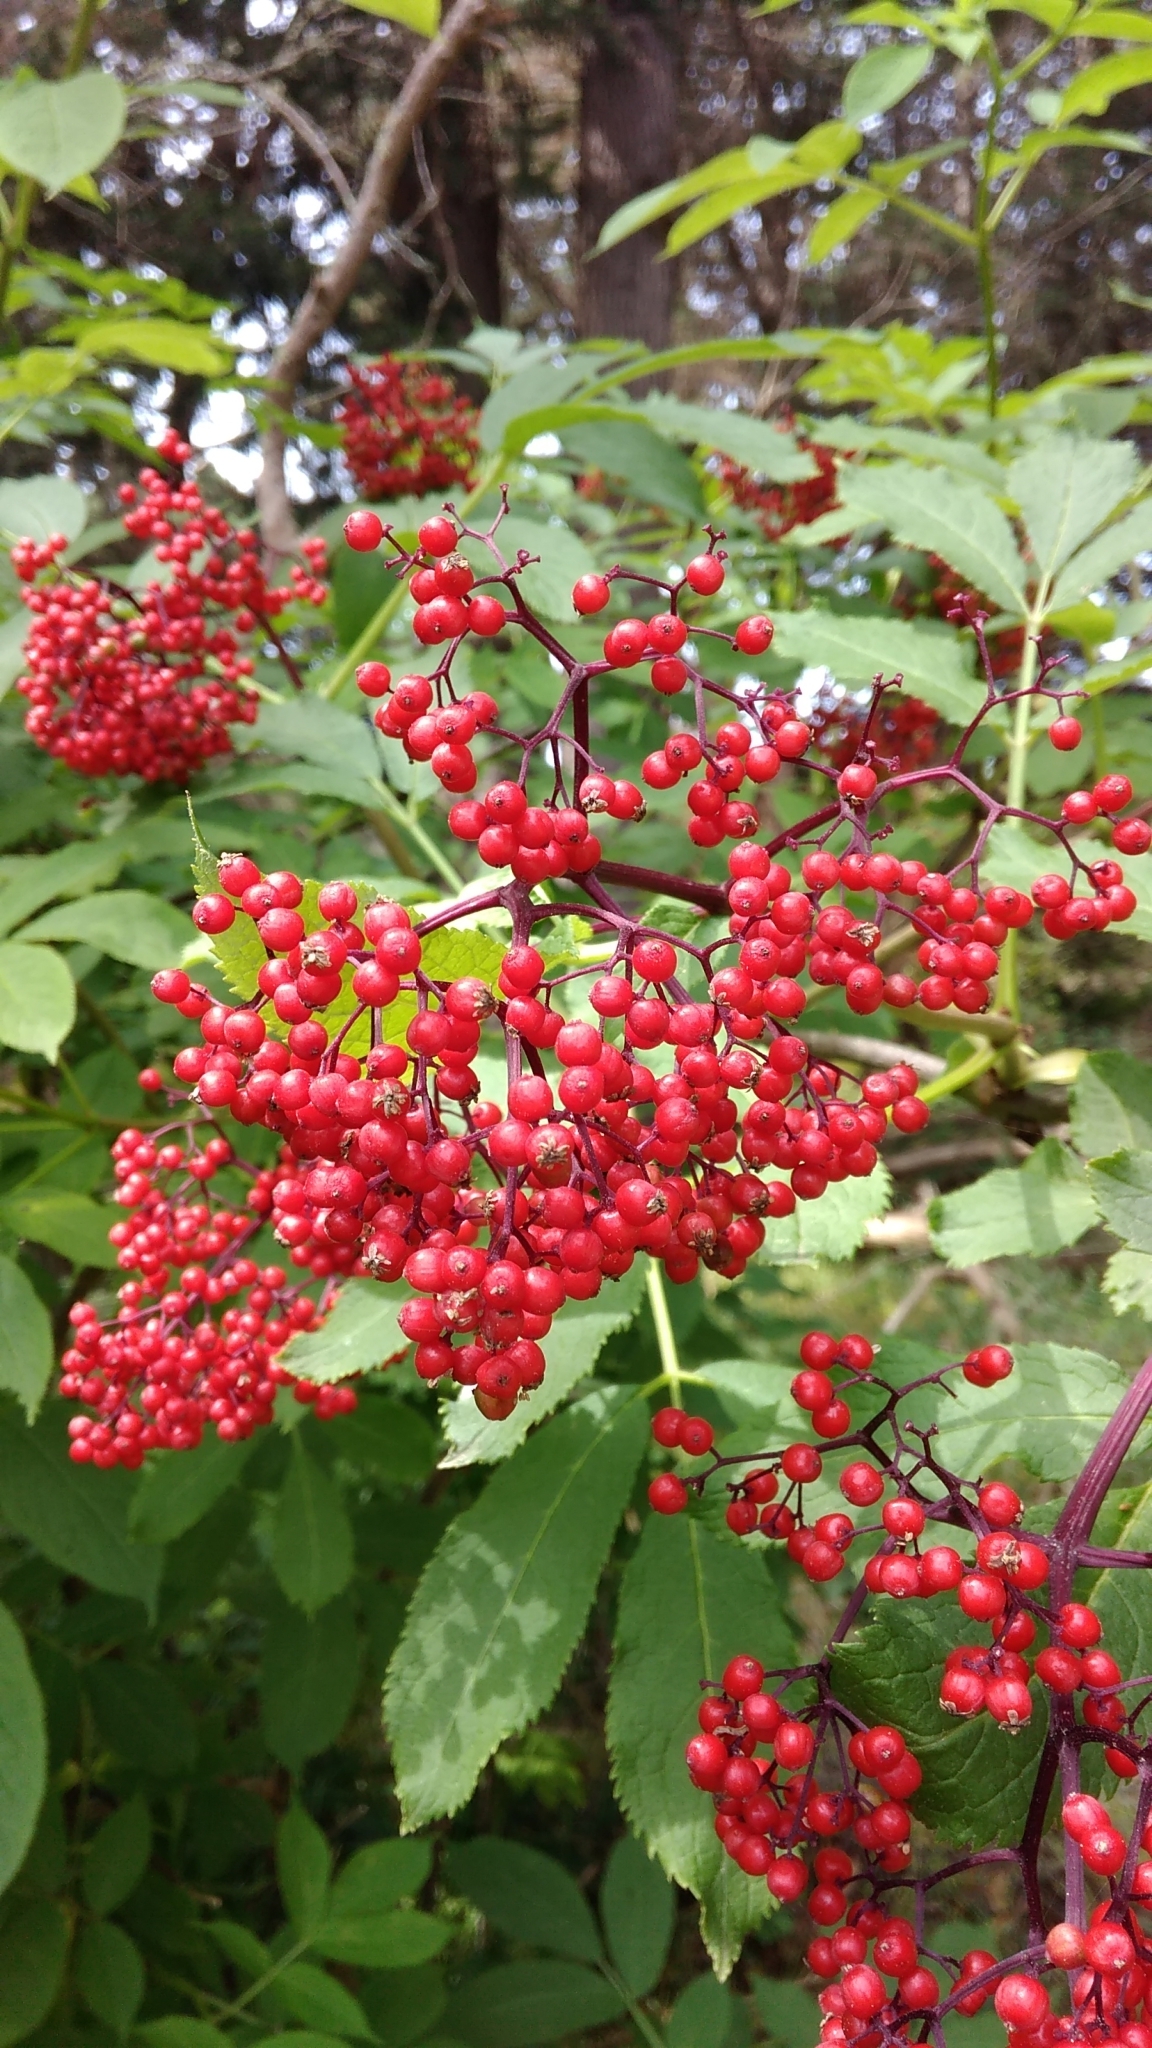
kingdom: Plantae
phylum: Tracheophyta
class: Magnoliopsida
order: Dipsacales
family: Viburnaceae
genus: Sambucus
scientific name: Sambucus racemosa
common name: Red-berried elder
